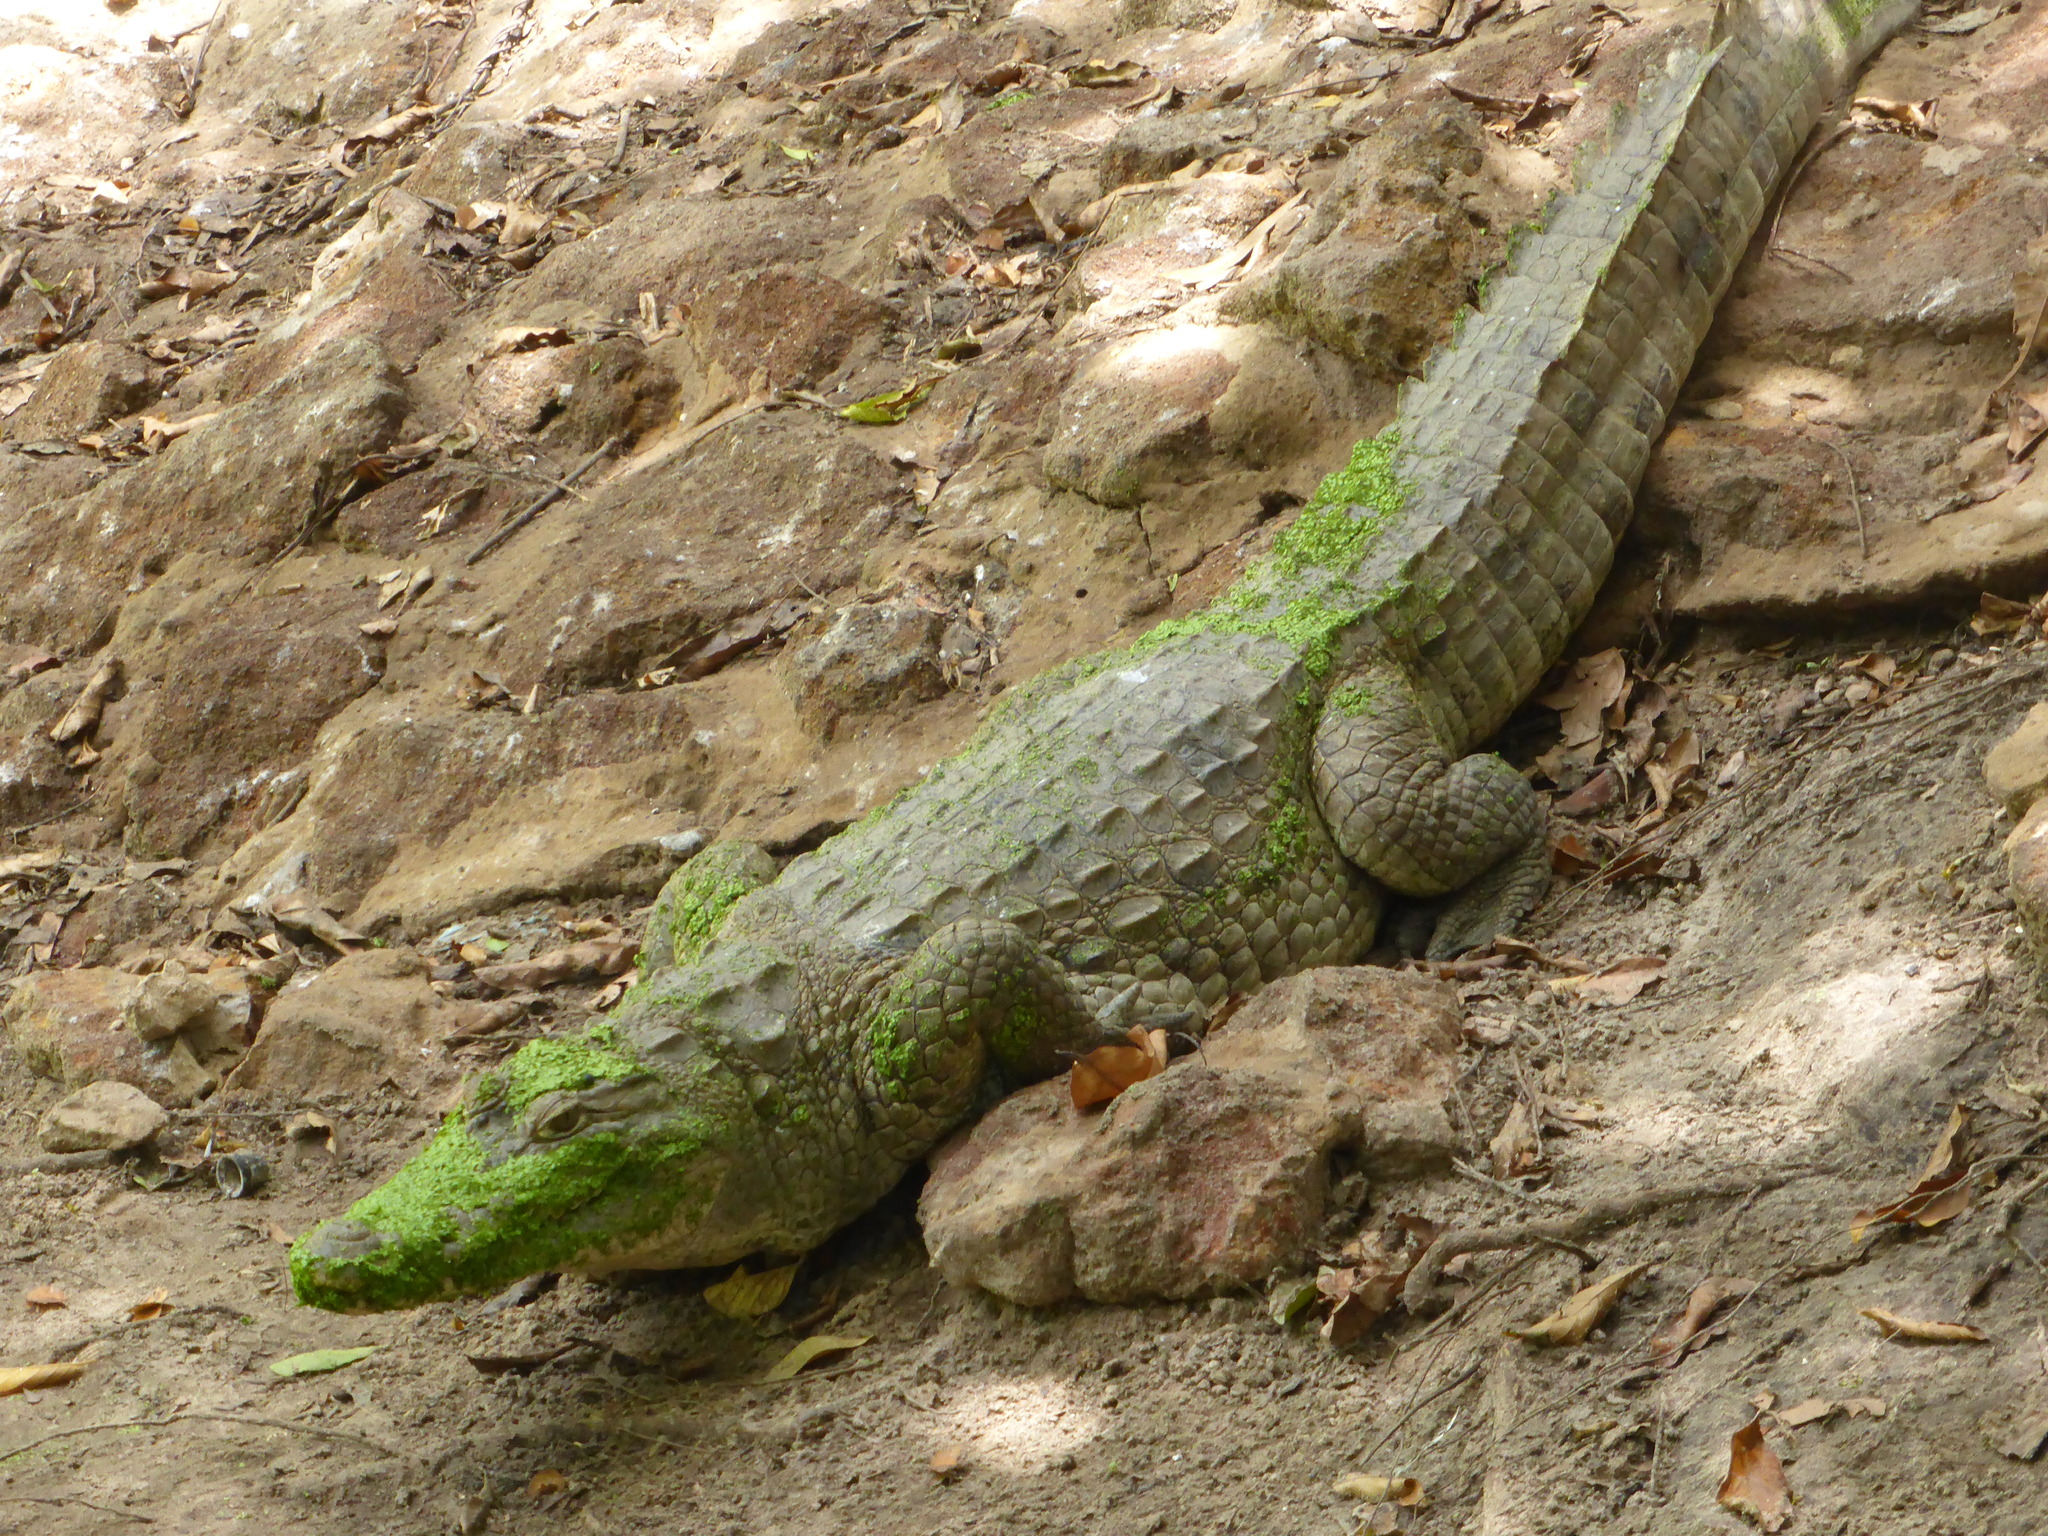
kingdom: Animalia
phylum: Chordata
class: Crocodylia
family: Crocodylidae
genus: Crocodylus
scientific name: Crocodylus suchus
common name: West african crocodile
